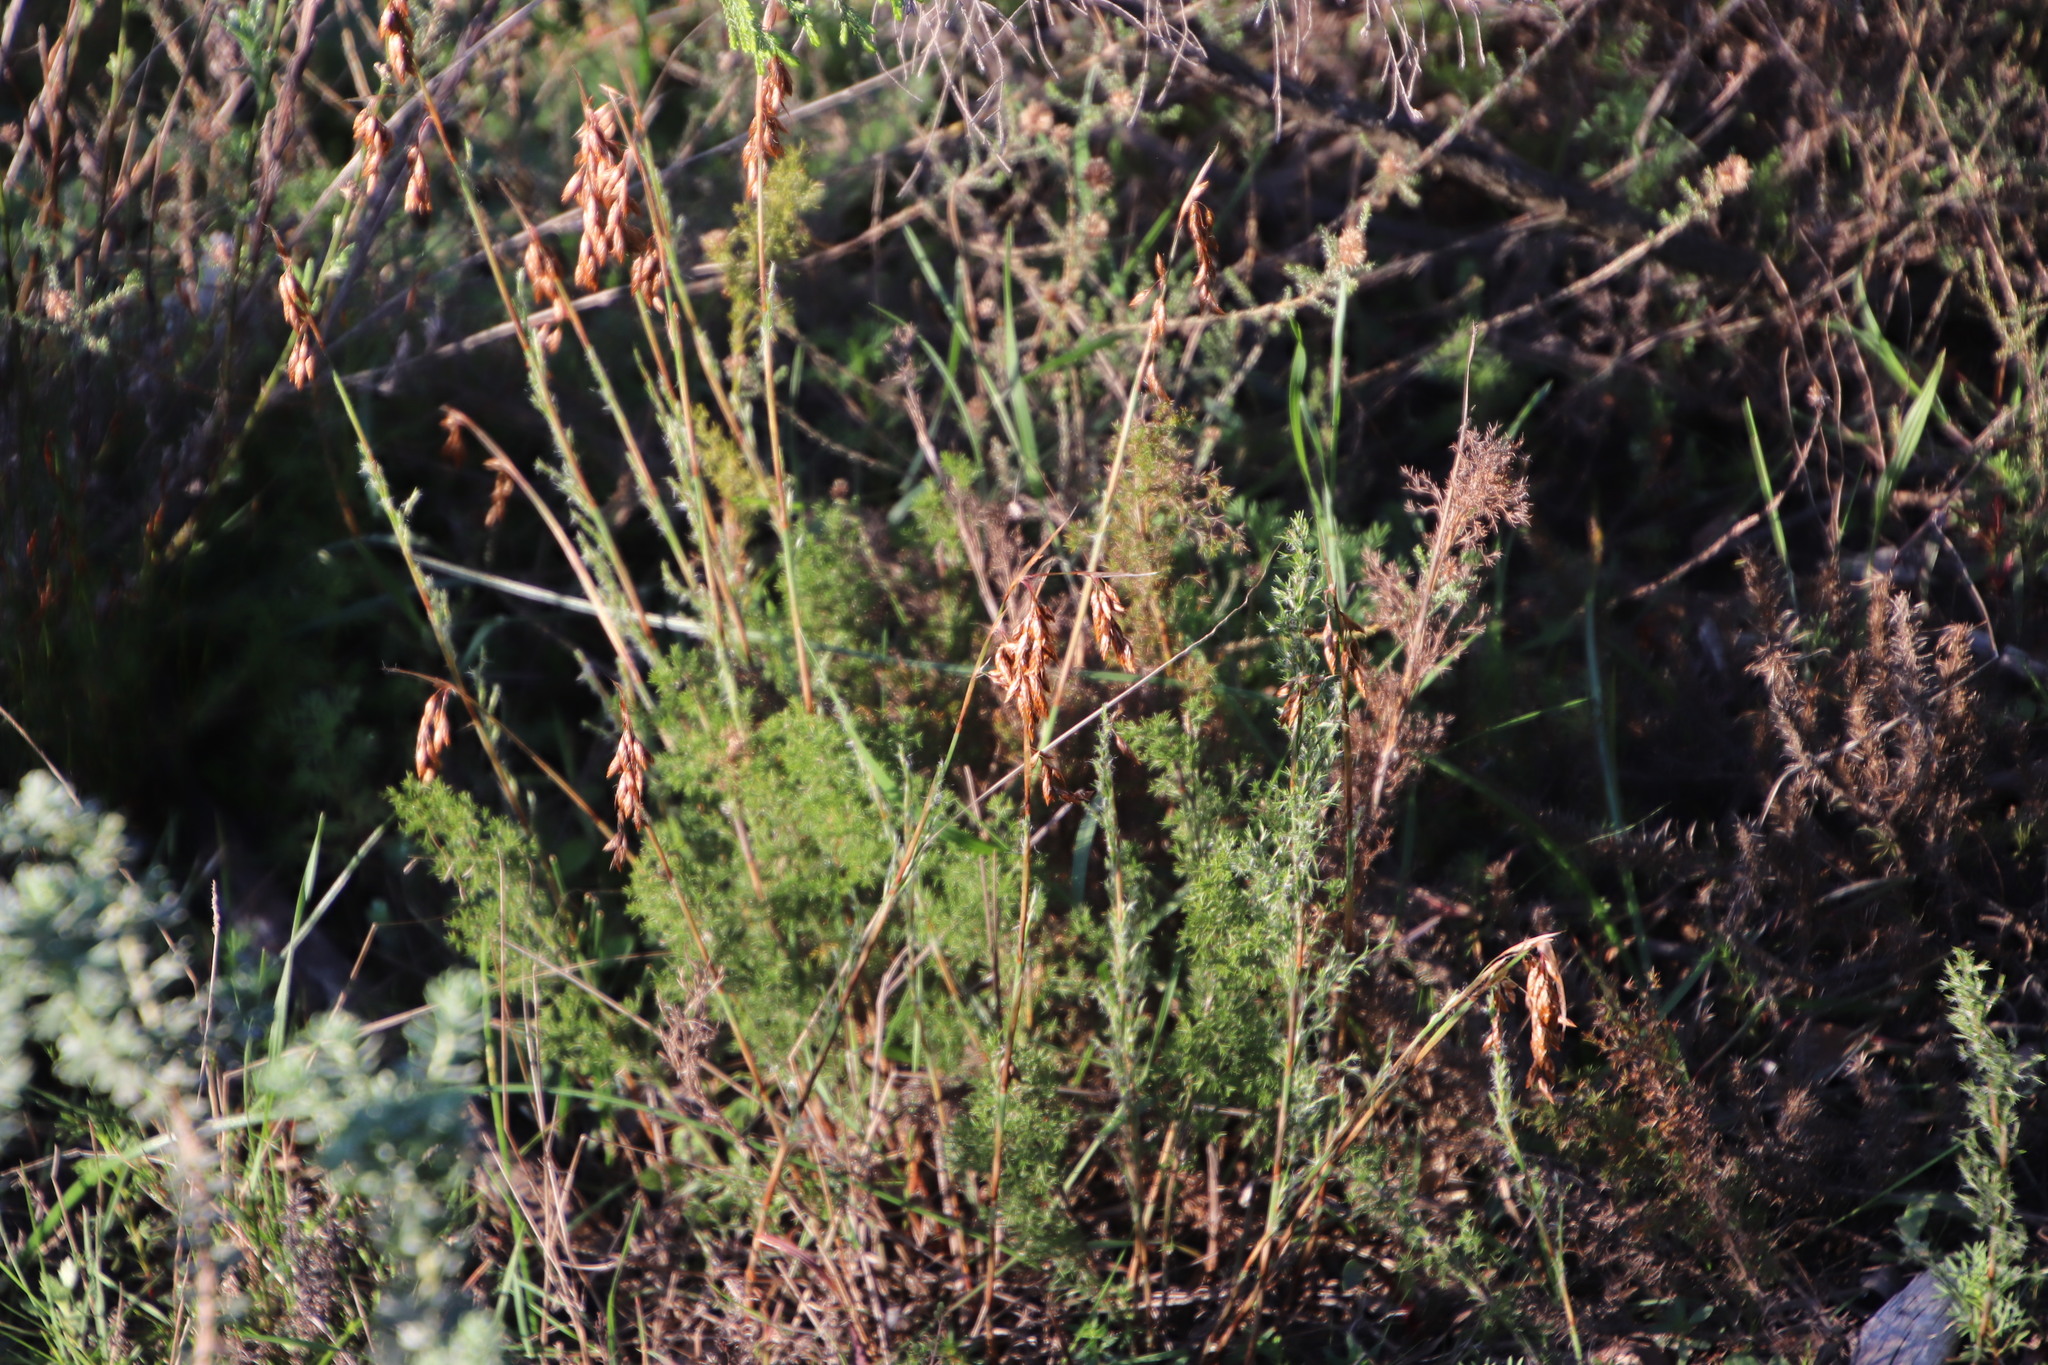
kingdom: Plantae
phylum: Tracheophyta
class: Liliopsida
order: Poales
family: Restionaceae
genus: Thamnochortus
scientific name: Thamnochortus fruticosus
